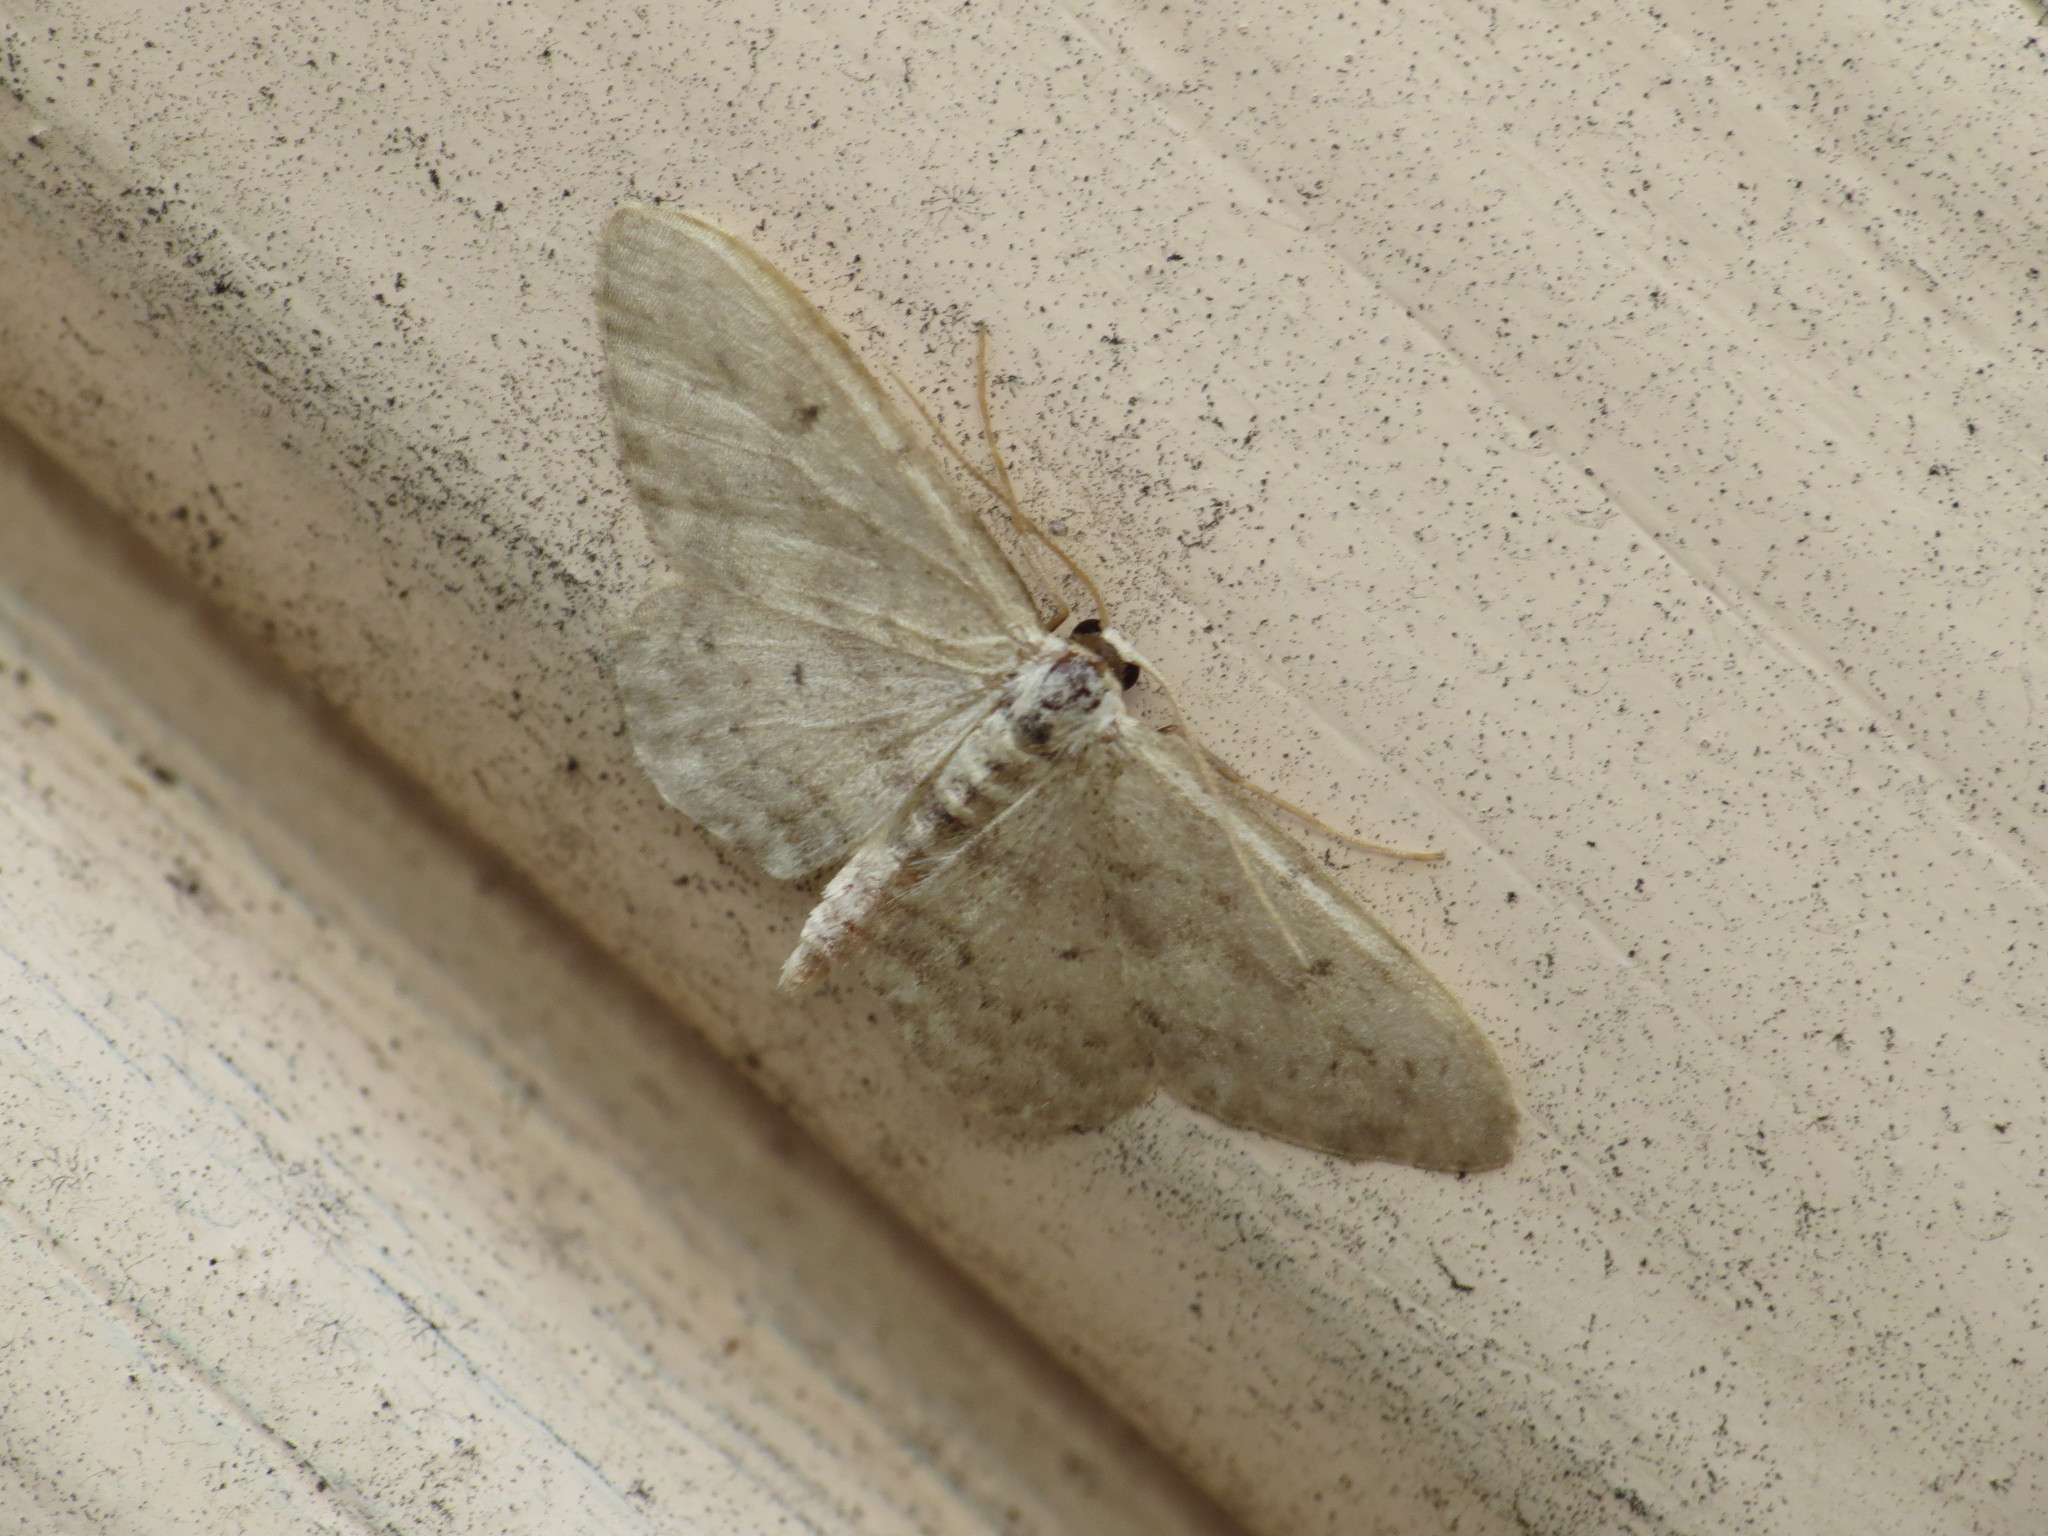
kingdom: Animalia
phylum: Arthropoda
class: Insecta
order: Lepidoptera
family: Geometridae
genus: Idaea
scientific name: Idaea seriata
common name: Small dusty wave
